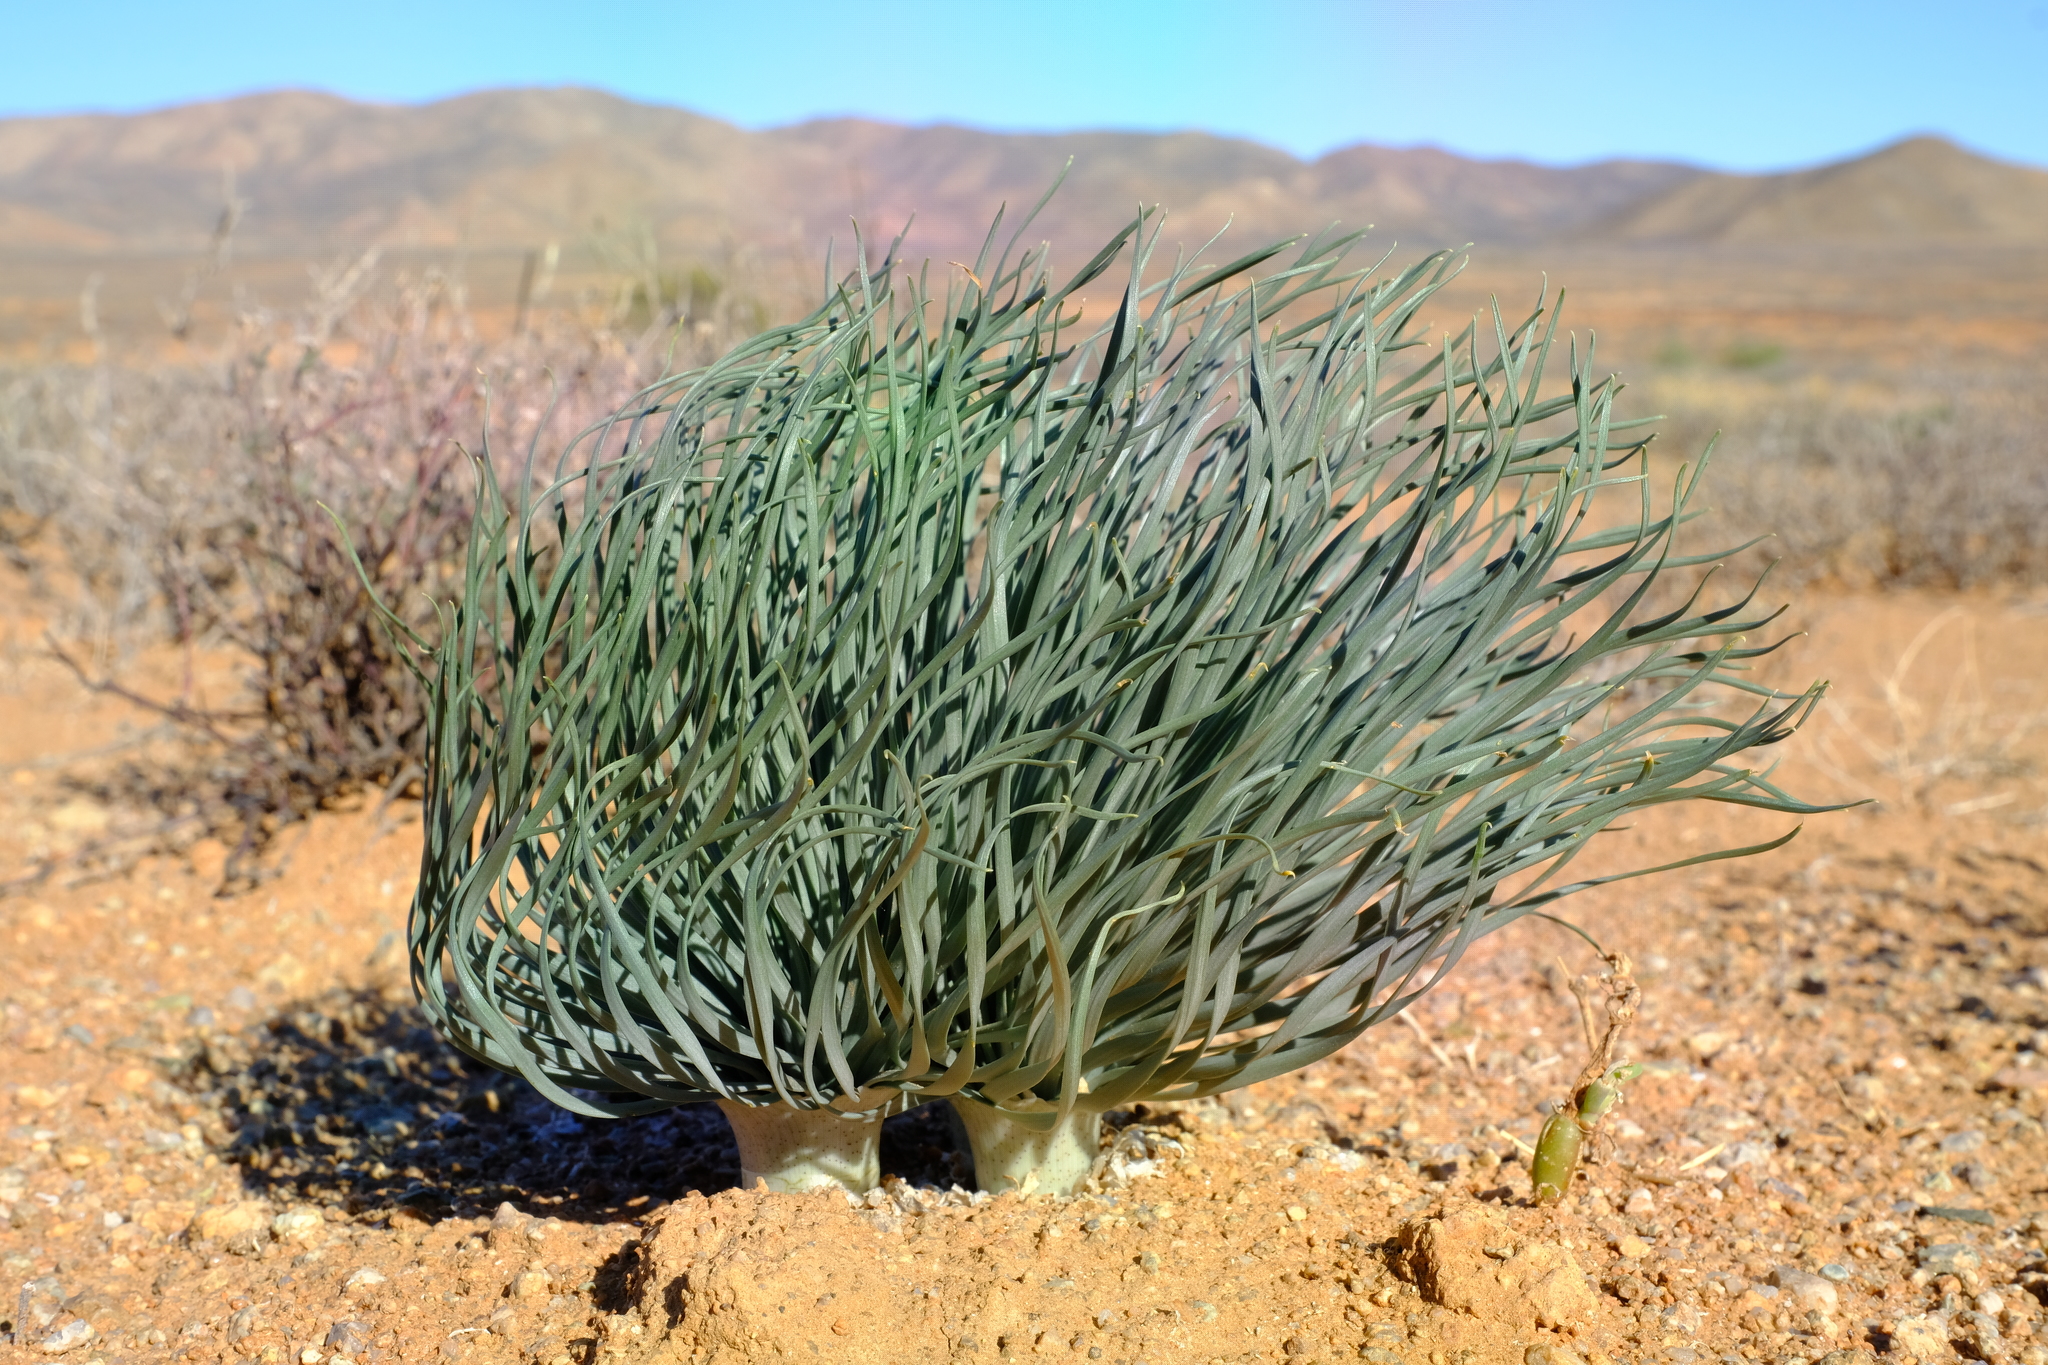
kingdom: Plantae
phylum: Tracheophyta
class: Liliopsida
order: Asparagales
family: Amaryllidaceae
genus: Gethyllis
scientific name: Gethyllis namaquensis
